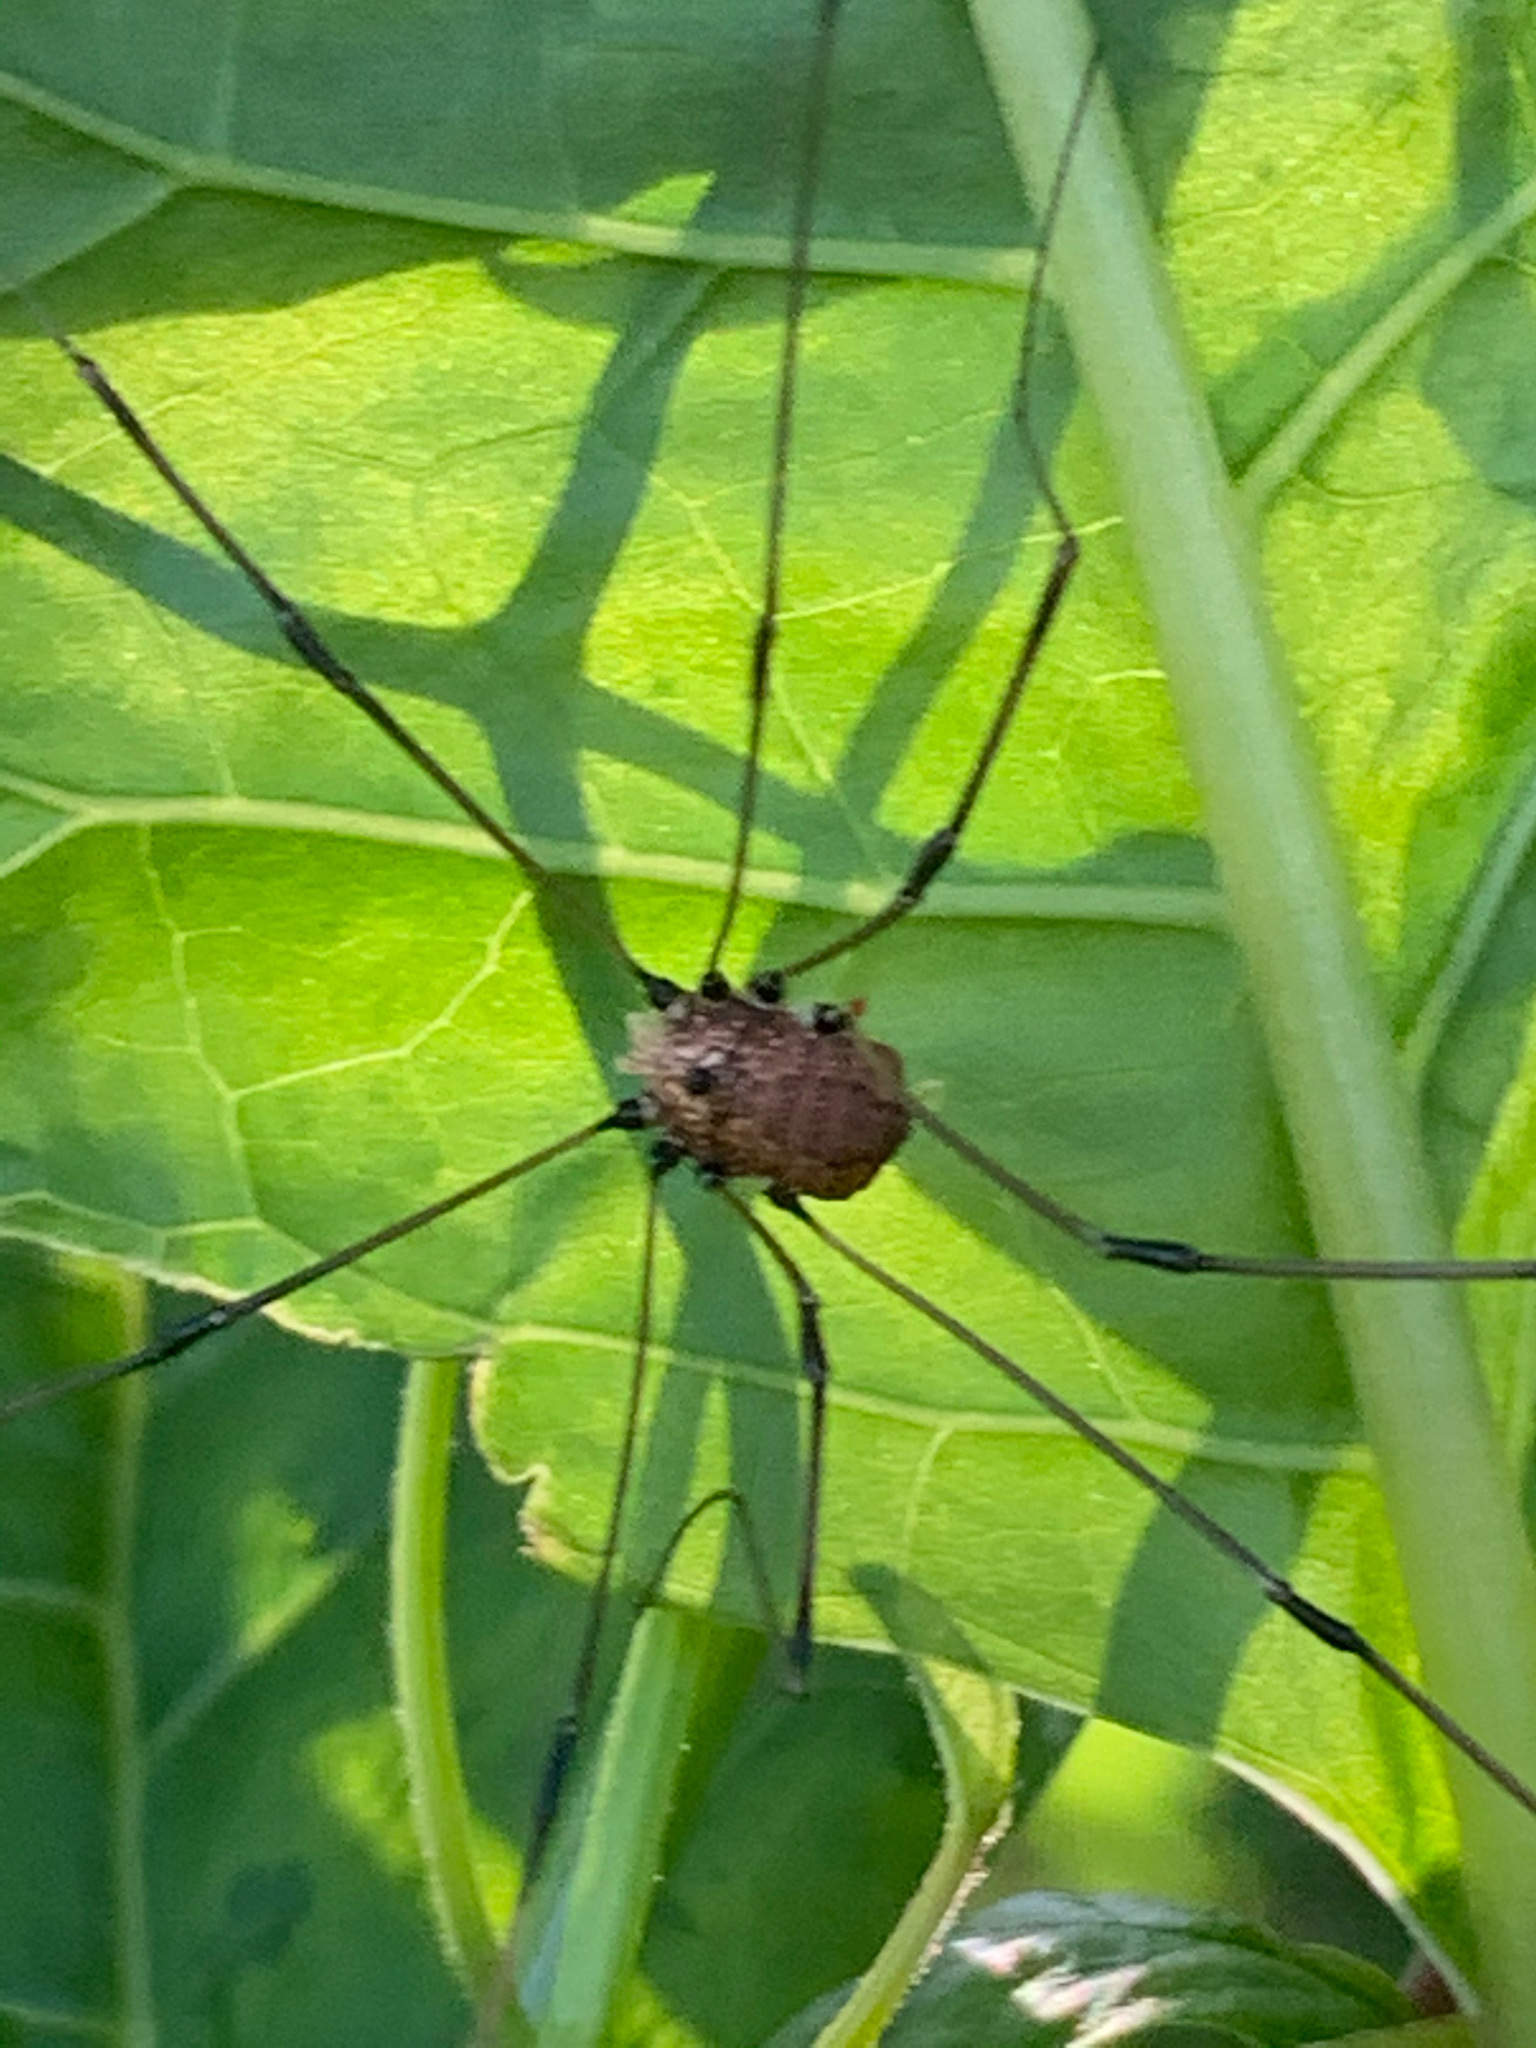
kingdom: Animalia
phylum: Arthropoda
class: Arachnida
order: Opiliones
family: Sclerosomatidae
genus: Leiobunum
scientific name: Leiobunum
